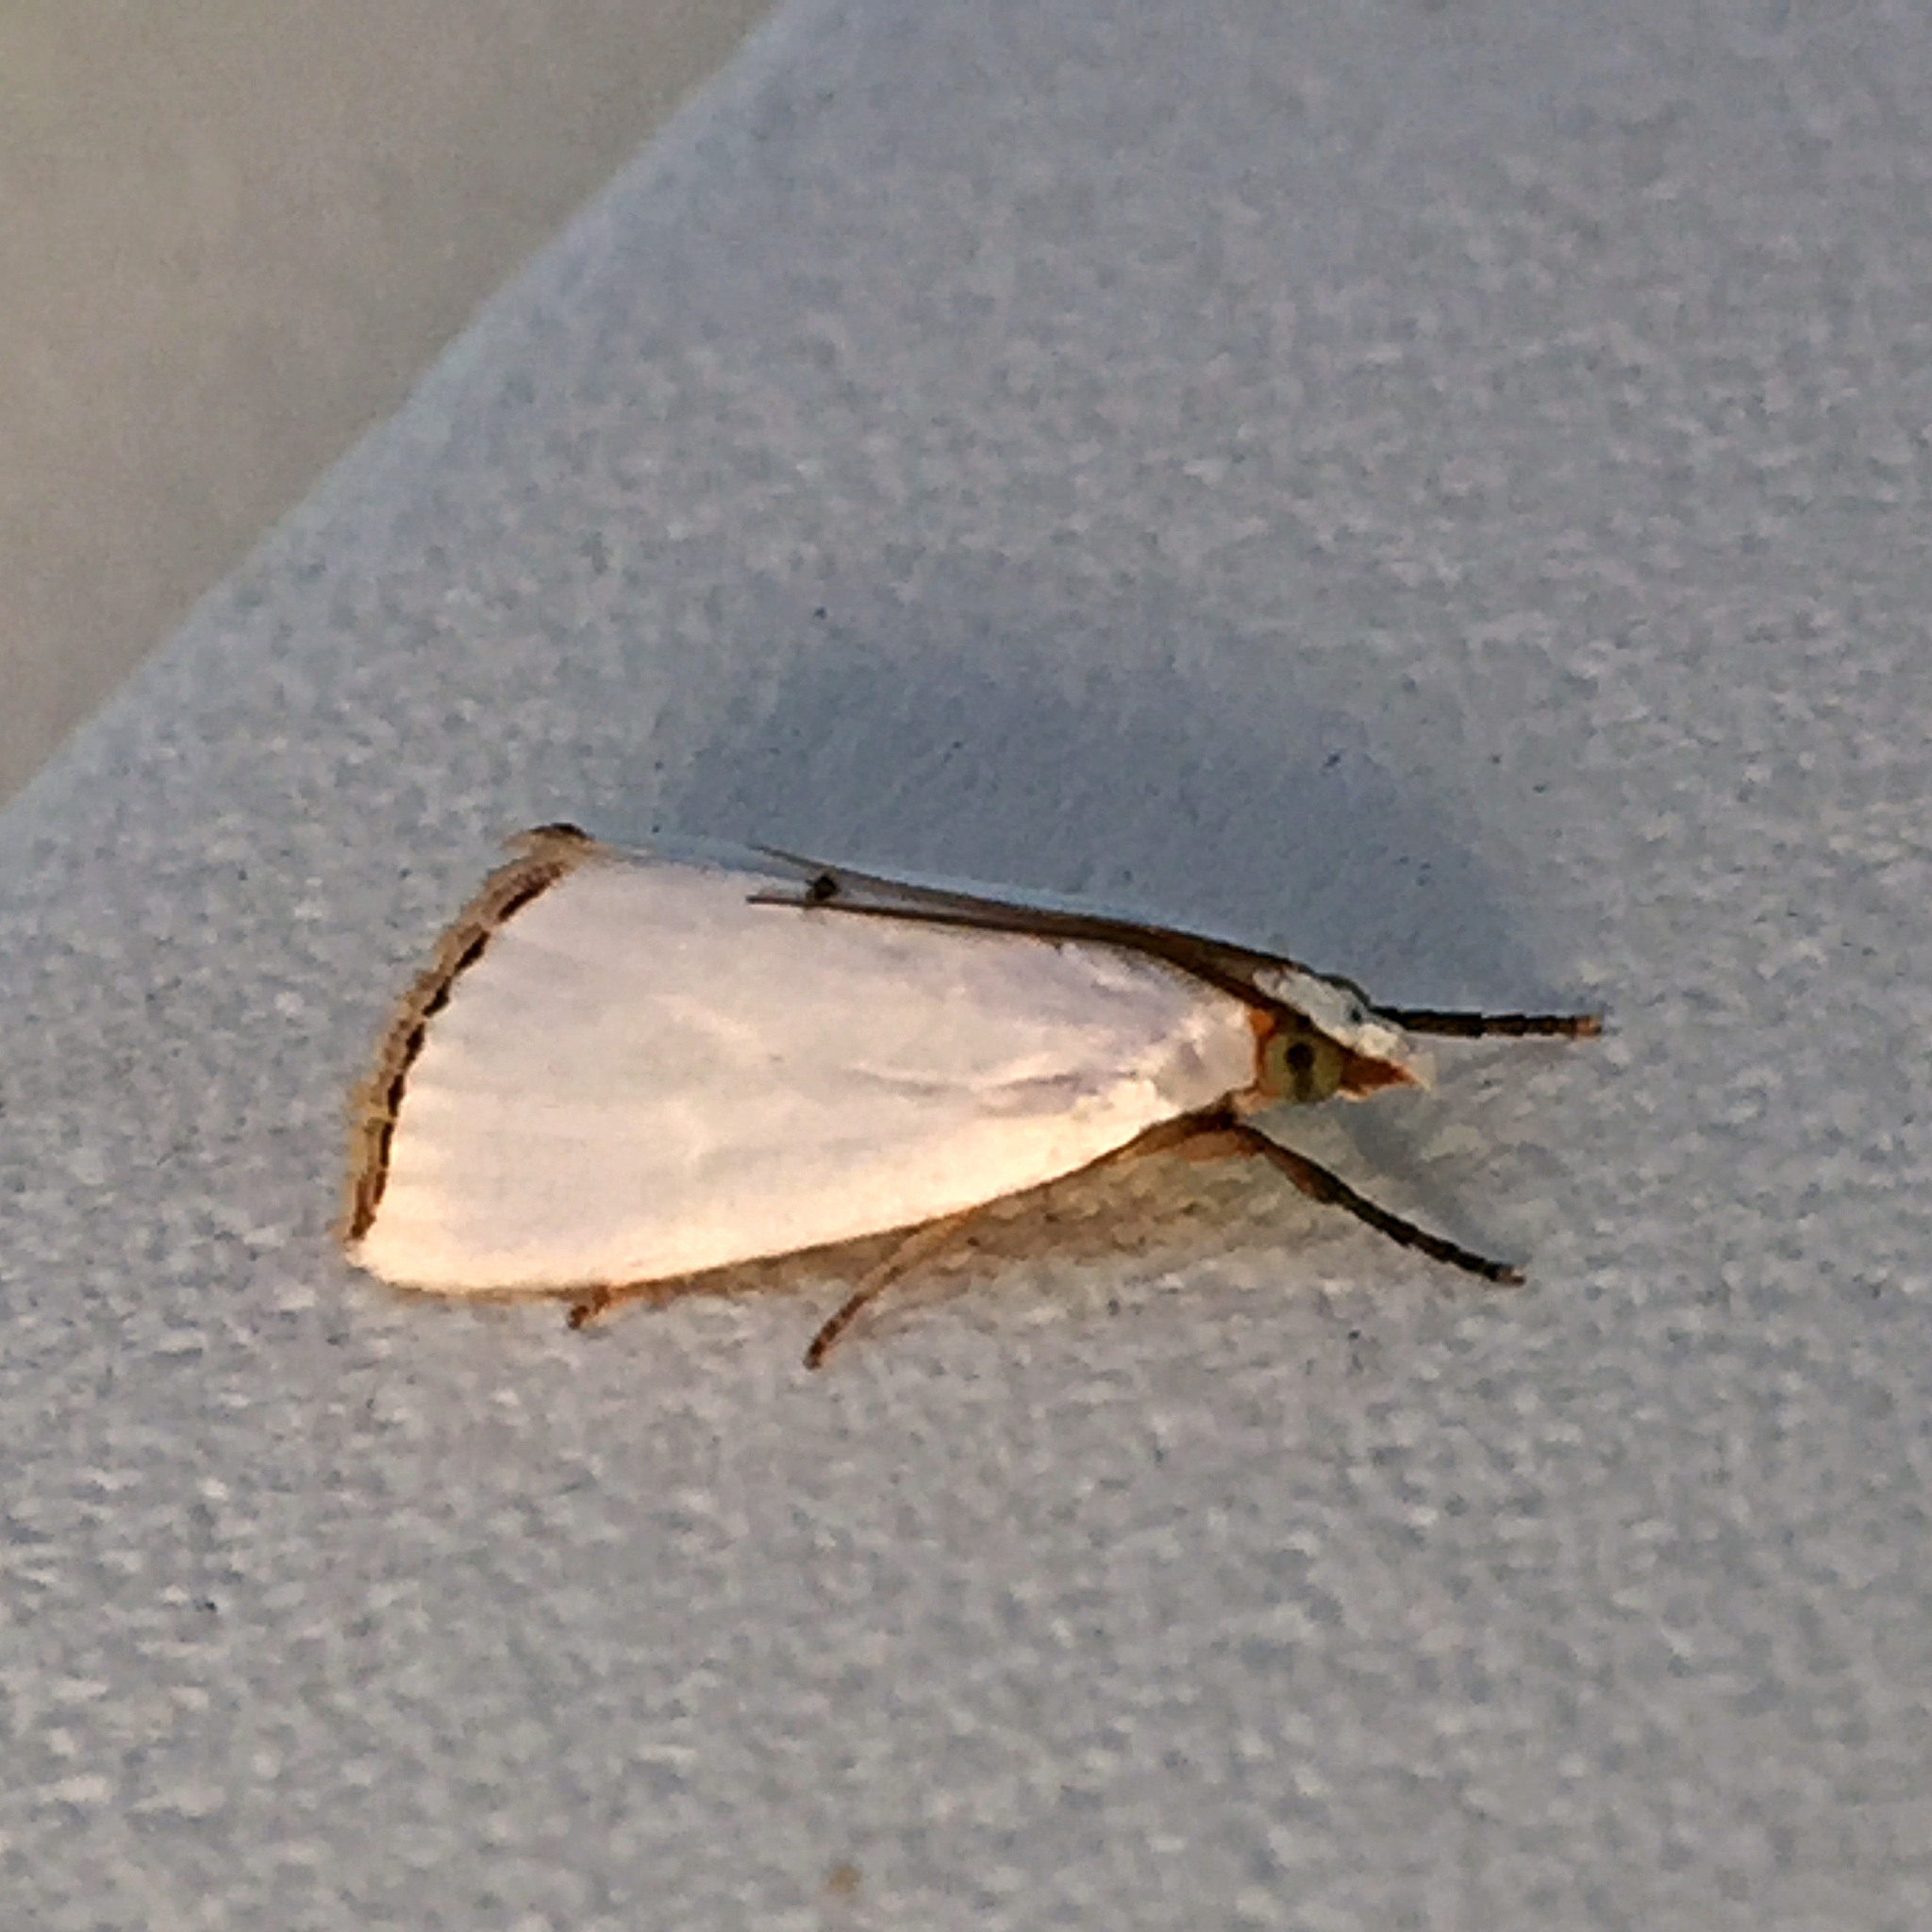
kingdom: Animalia
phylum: Arthropoda
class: Insecta
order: Lepidoptera
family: Crambidae
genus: Argyria
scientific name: Argyria nivalis
